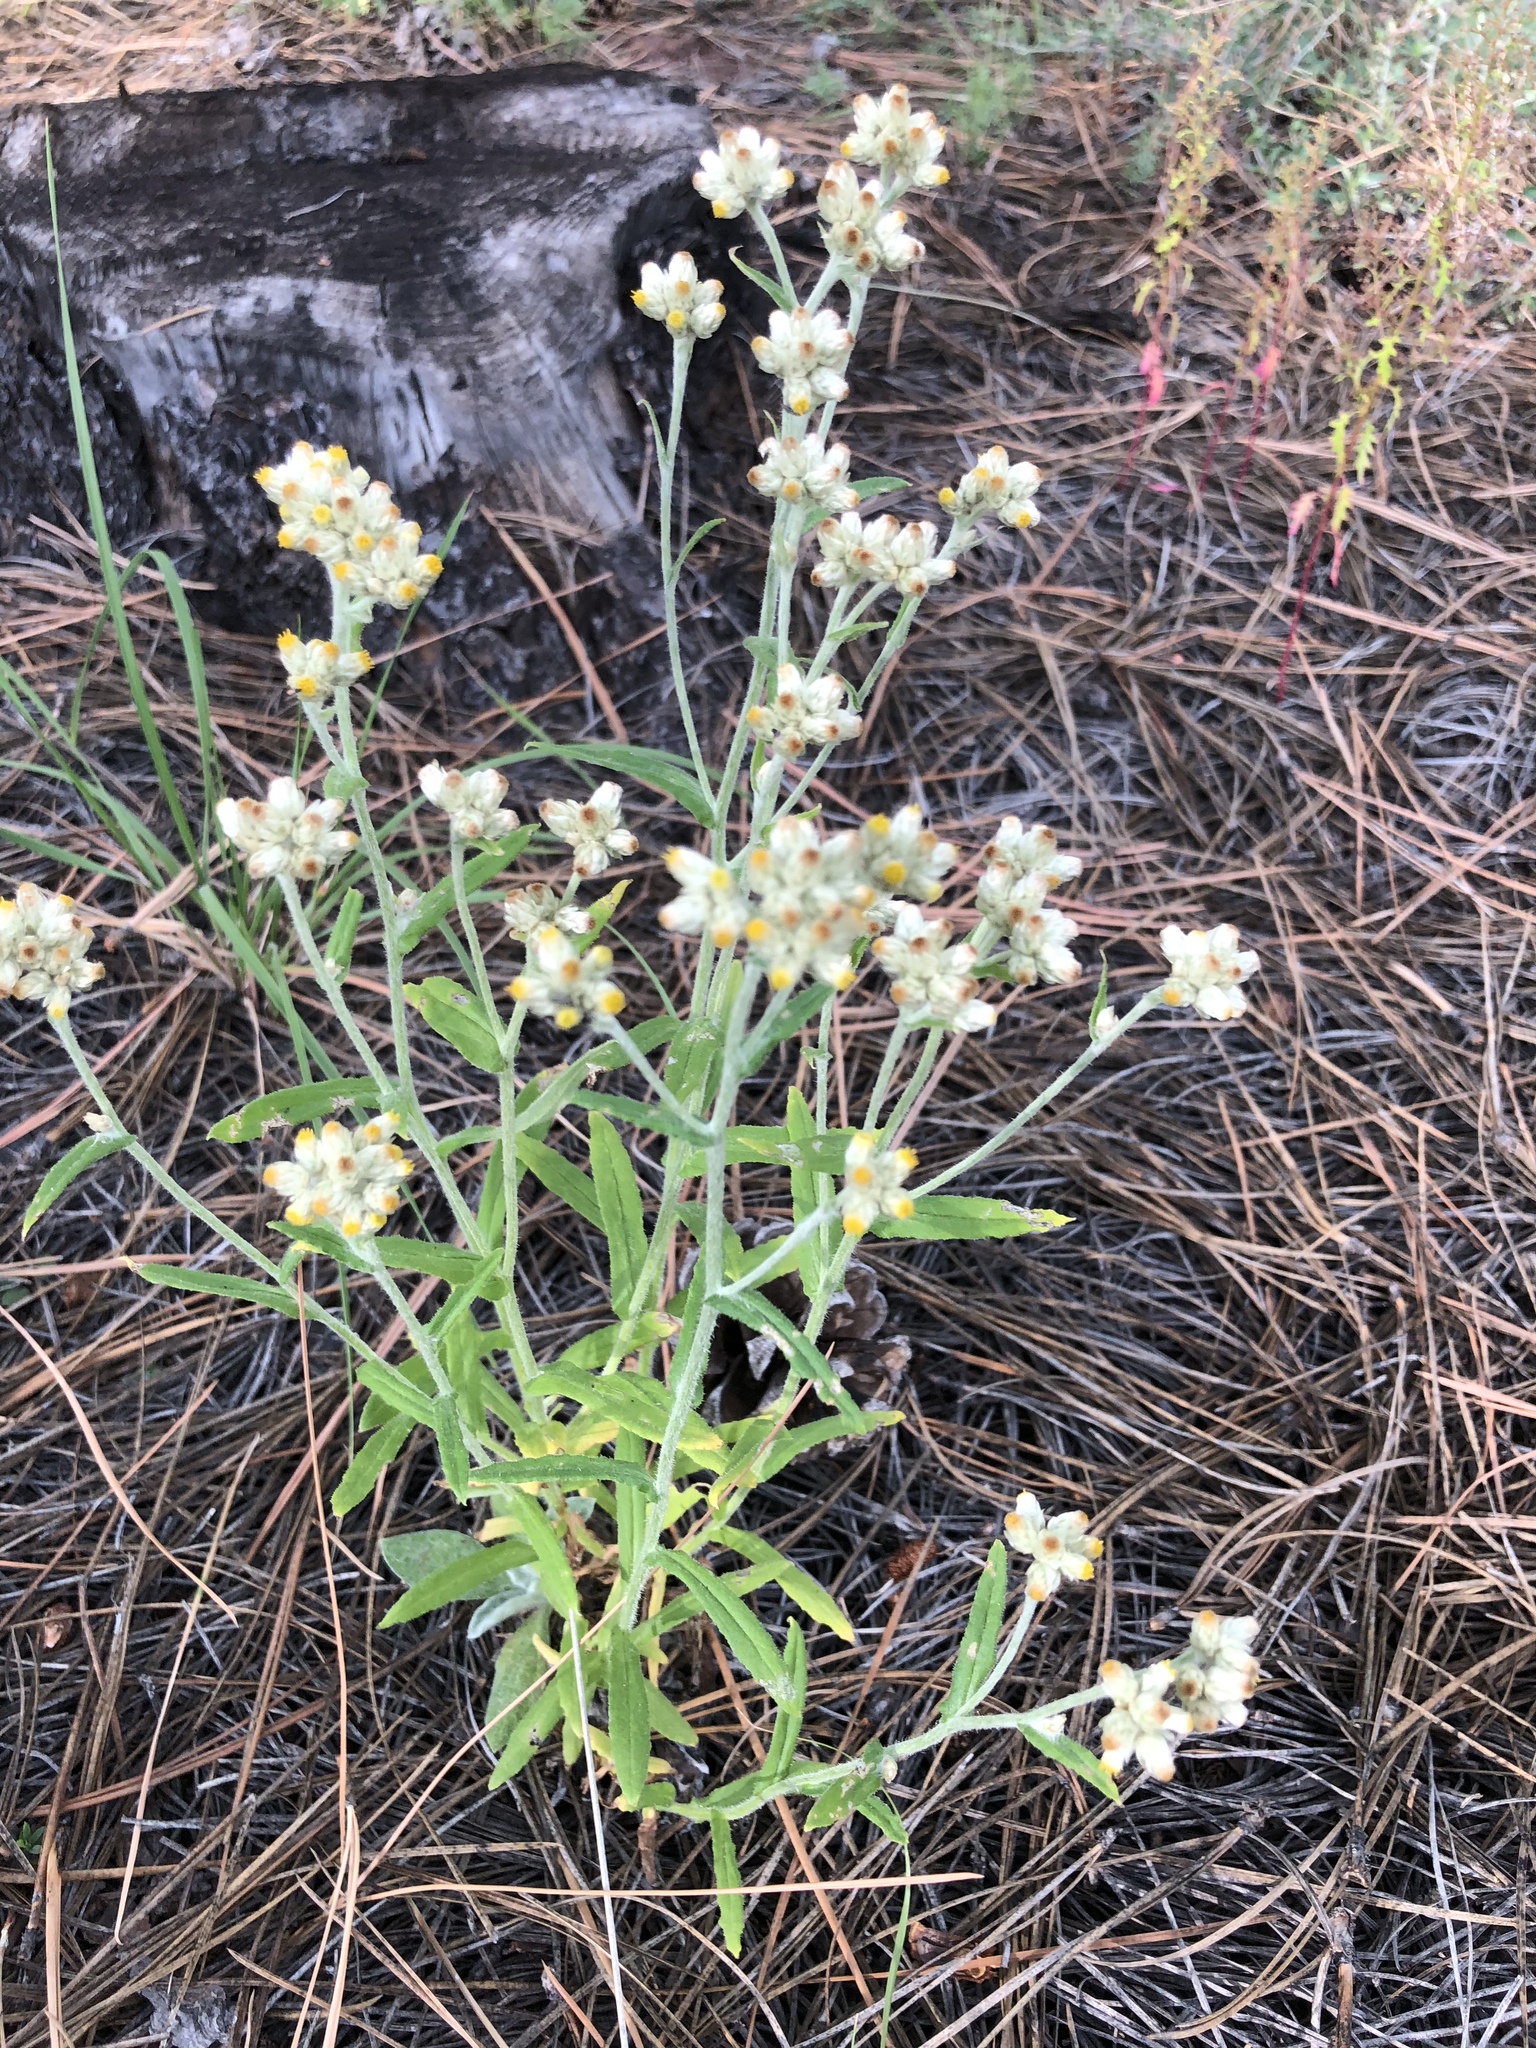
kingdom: Plantae
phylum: Tracheophyta
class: Magnoliopsida
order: Asterales
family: Asteraceae
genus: Pseudognaphalium
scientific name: Pseudognaphalium macounii
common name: Clammy cudweed
